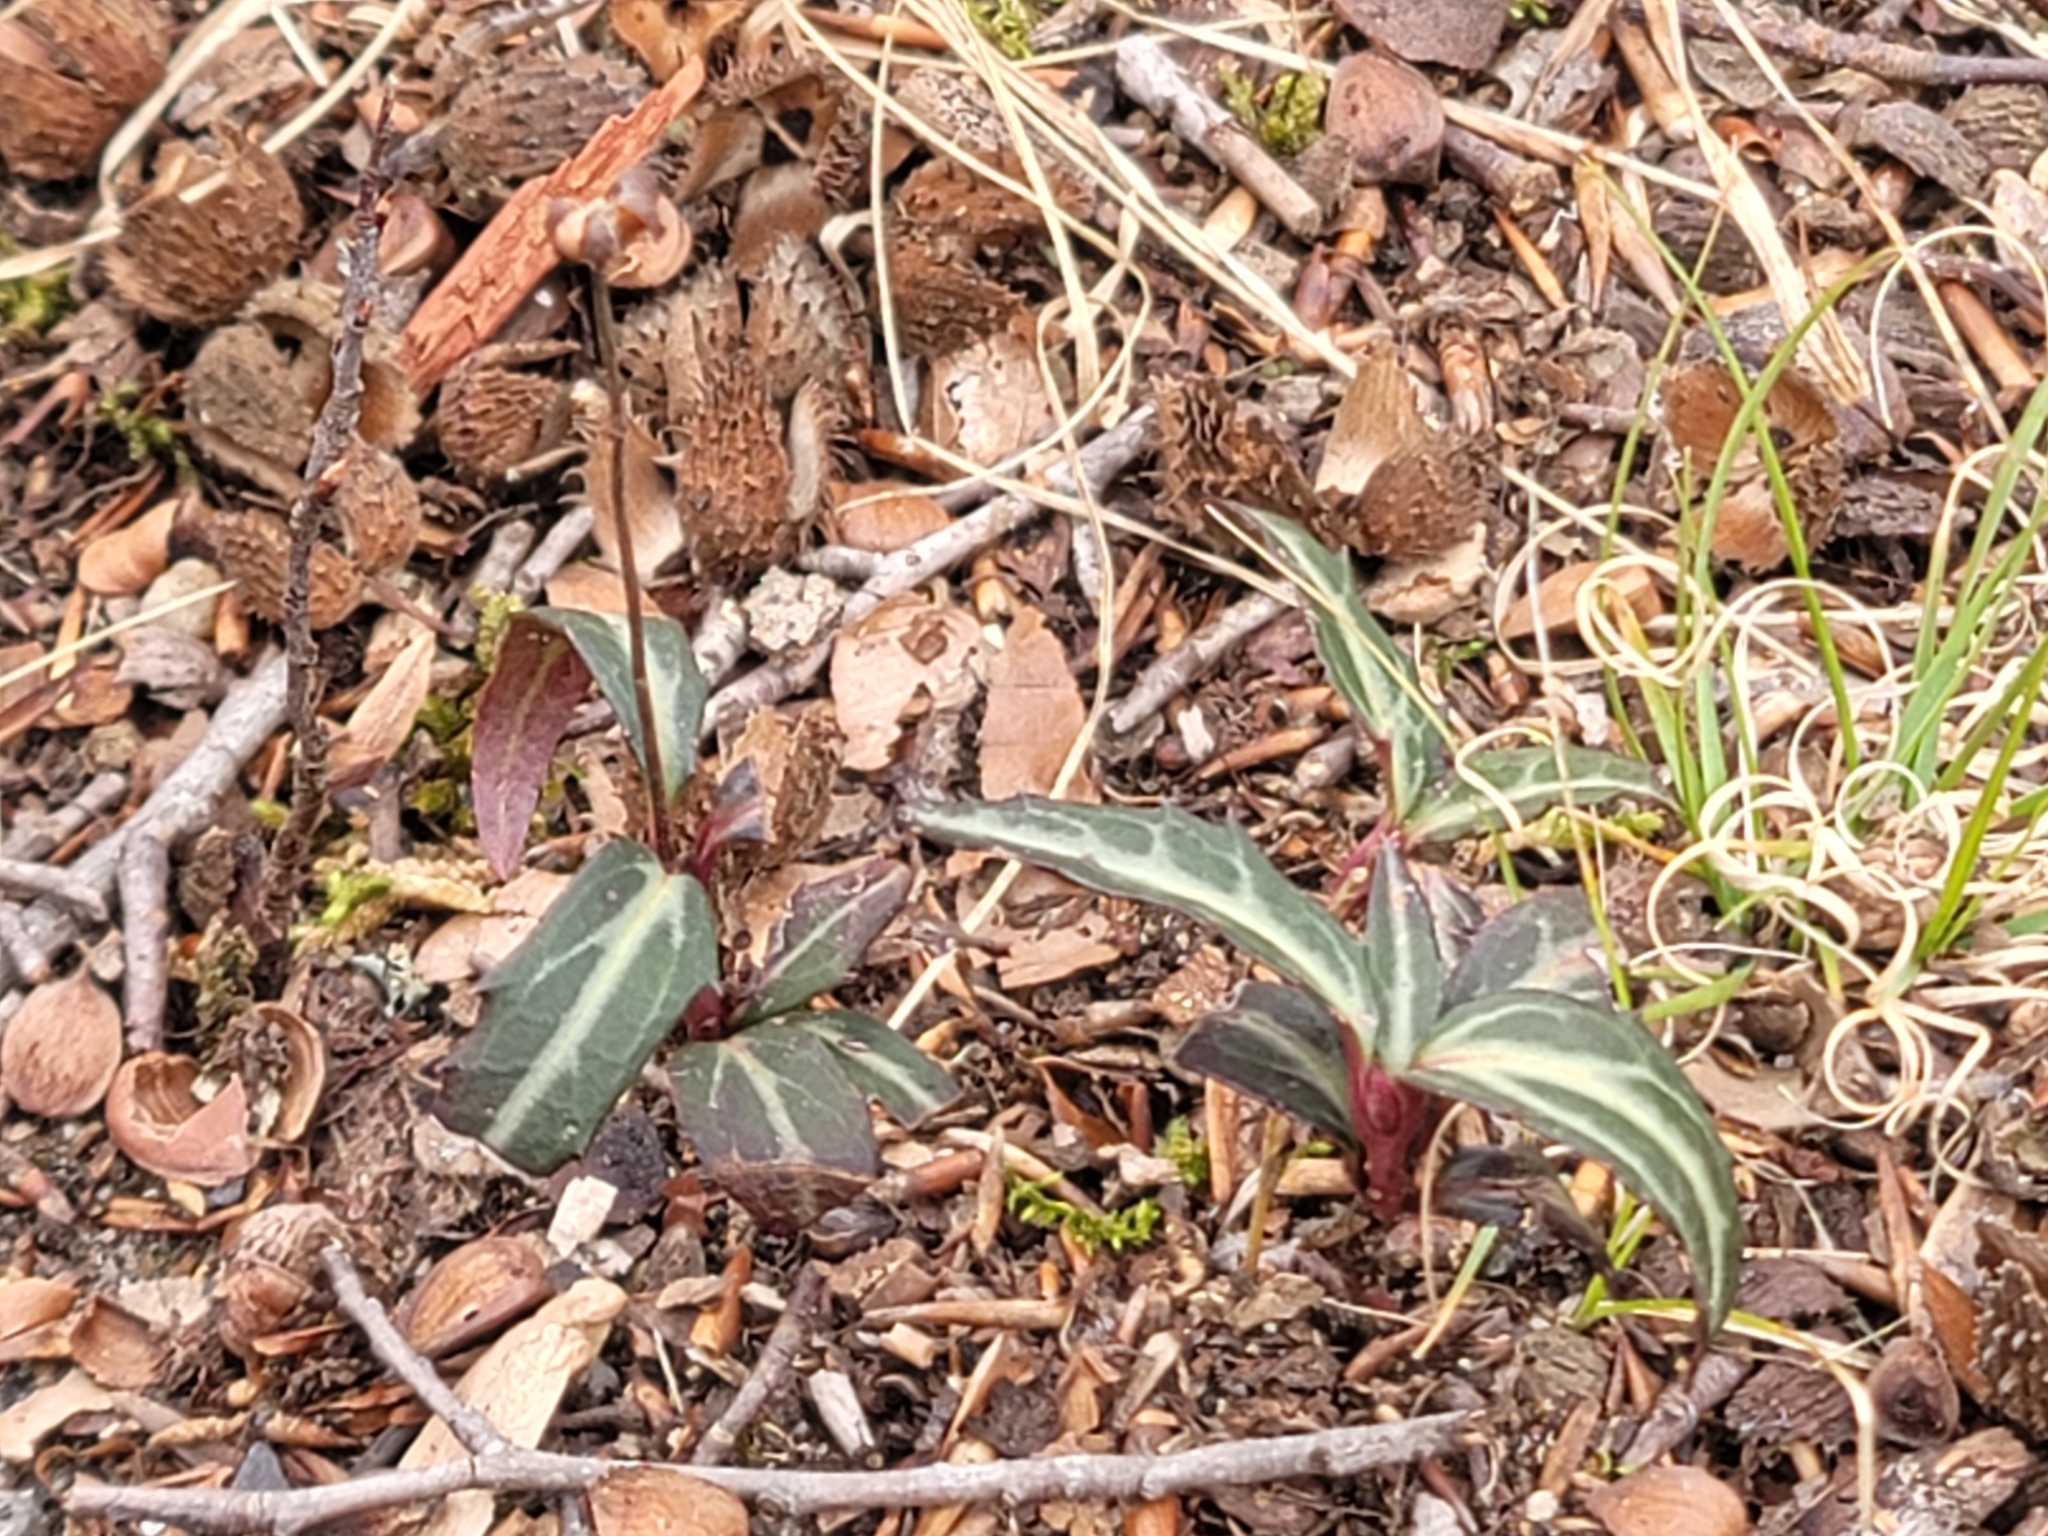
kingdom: Plantae
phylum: Tracheophyta
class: Magnoliopsida
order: Ericales
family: Ericaceae
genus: Chimaphila
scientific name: Chimaphila maculata
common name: Spotted pipsissewa
